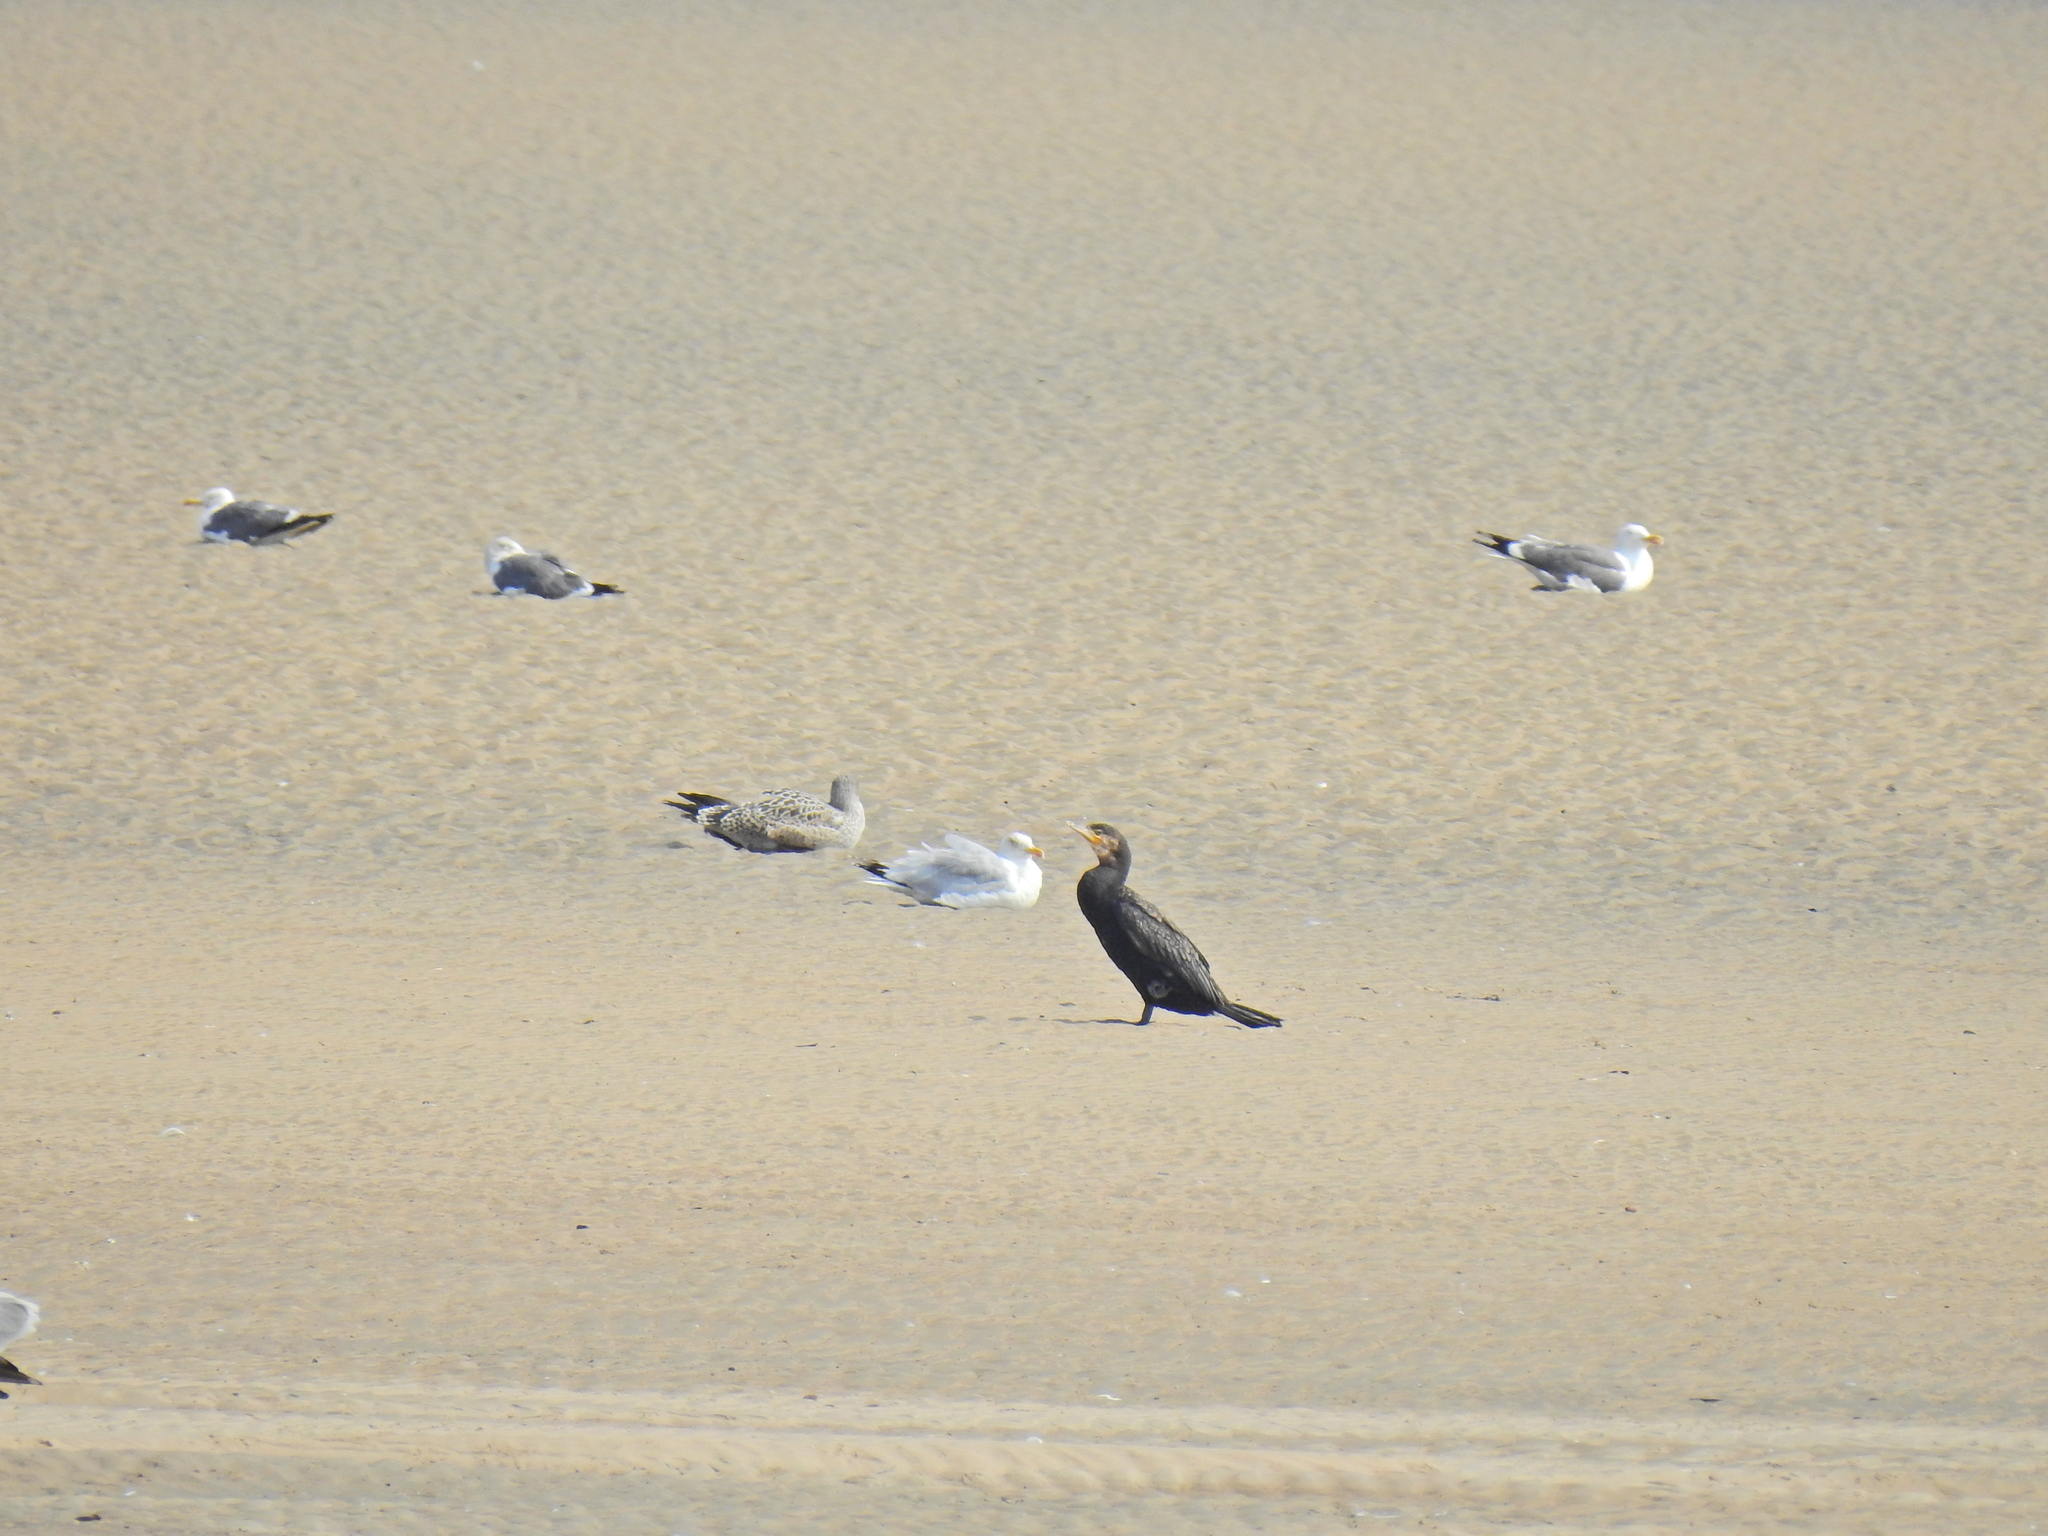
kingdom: Animalia
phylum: Chordata
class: Aves
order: Suliformes
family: Phalacrocoracidae
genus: Phalacrocorax
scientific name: Phalacrocorax carbo
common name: Great cormorant
